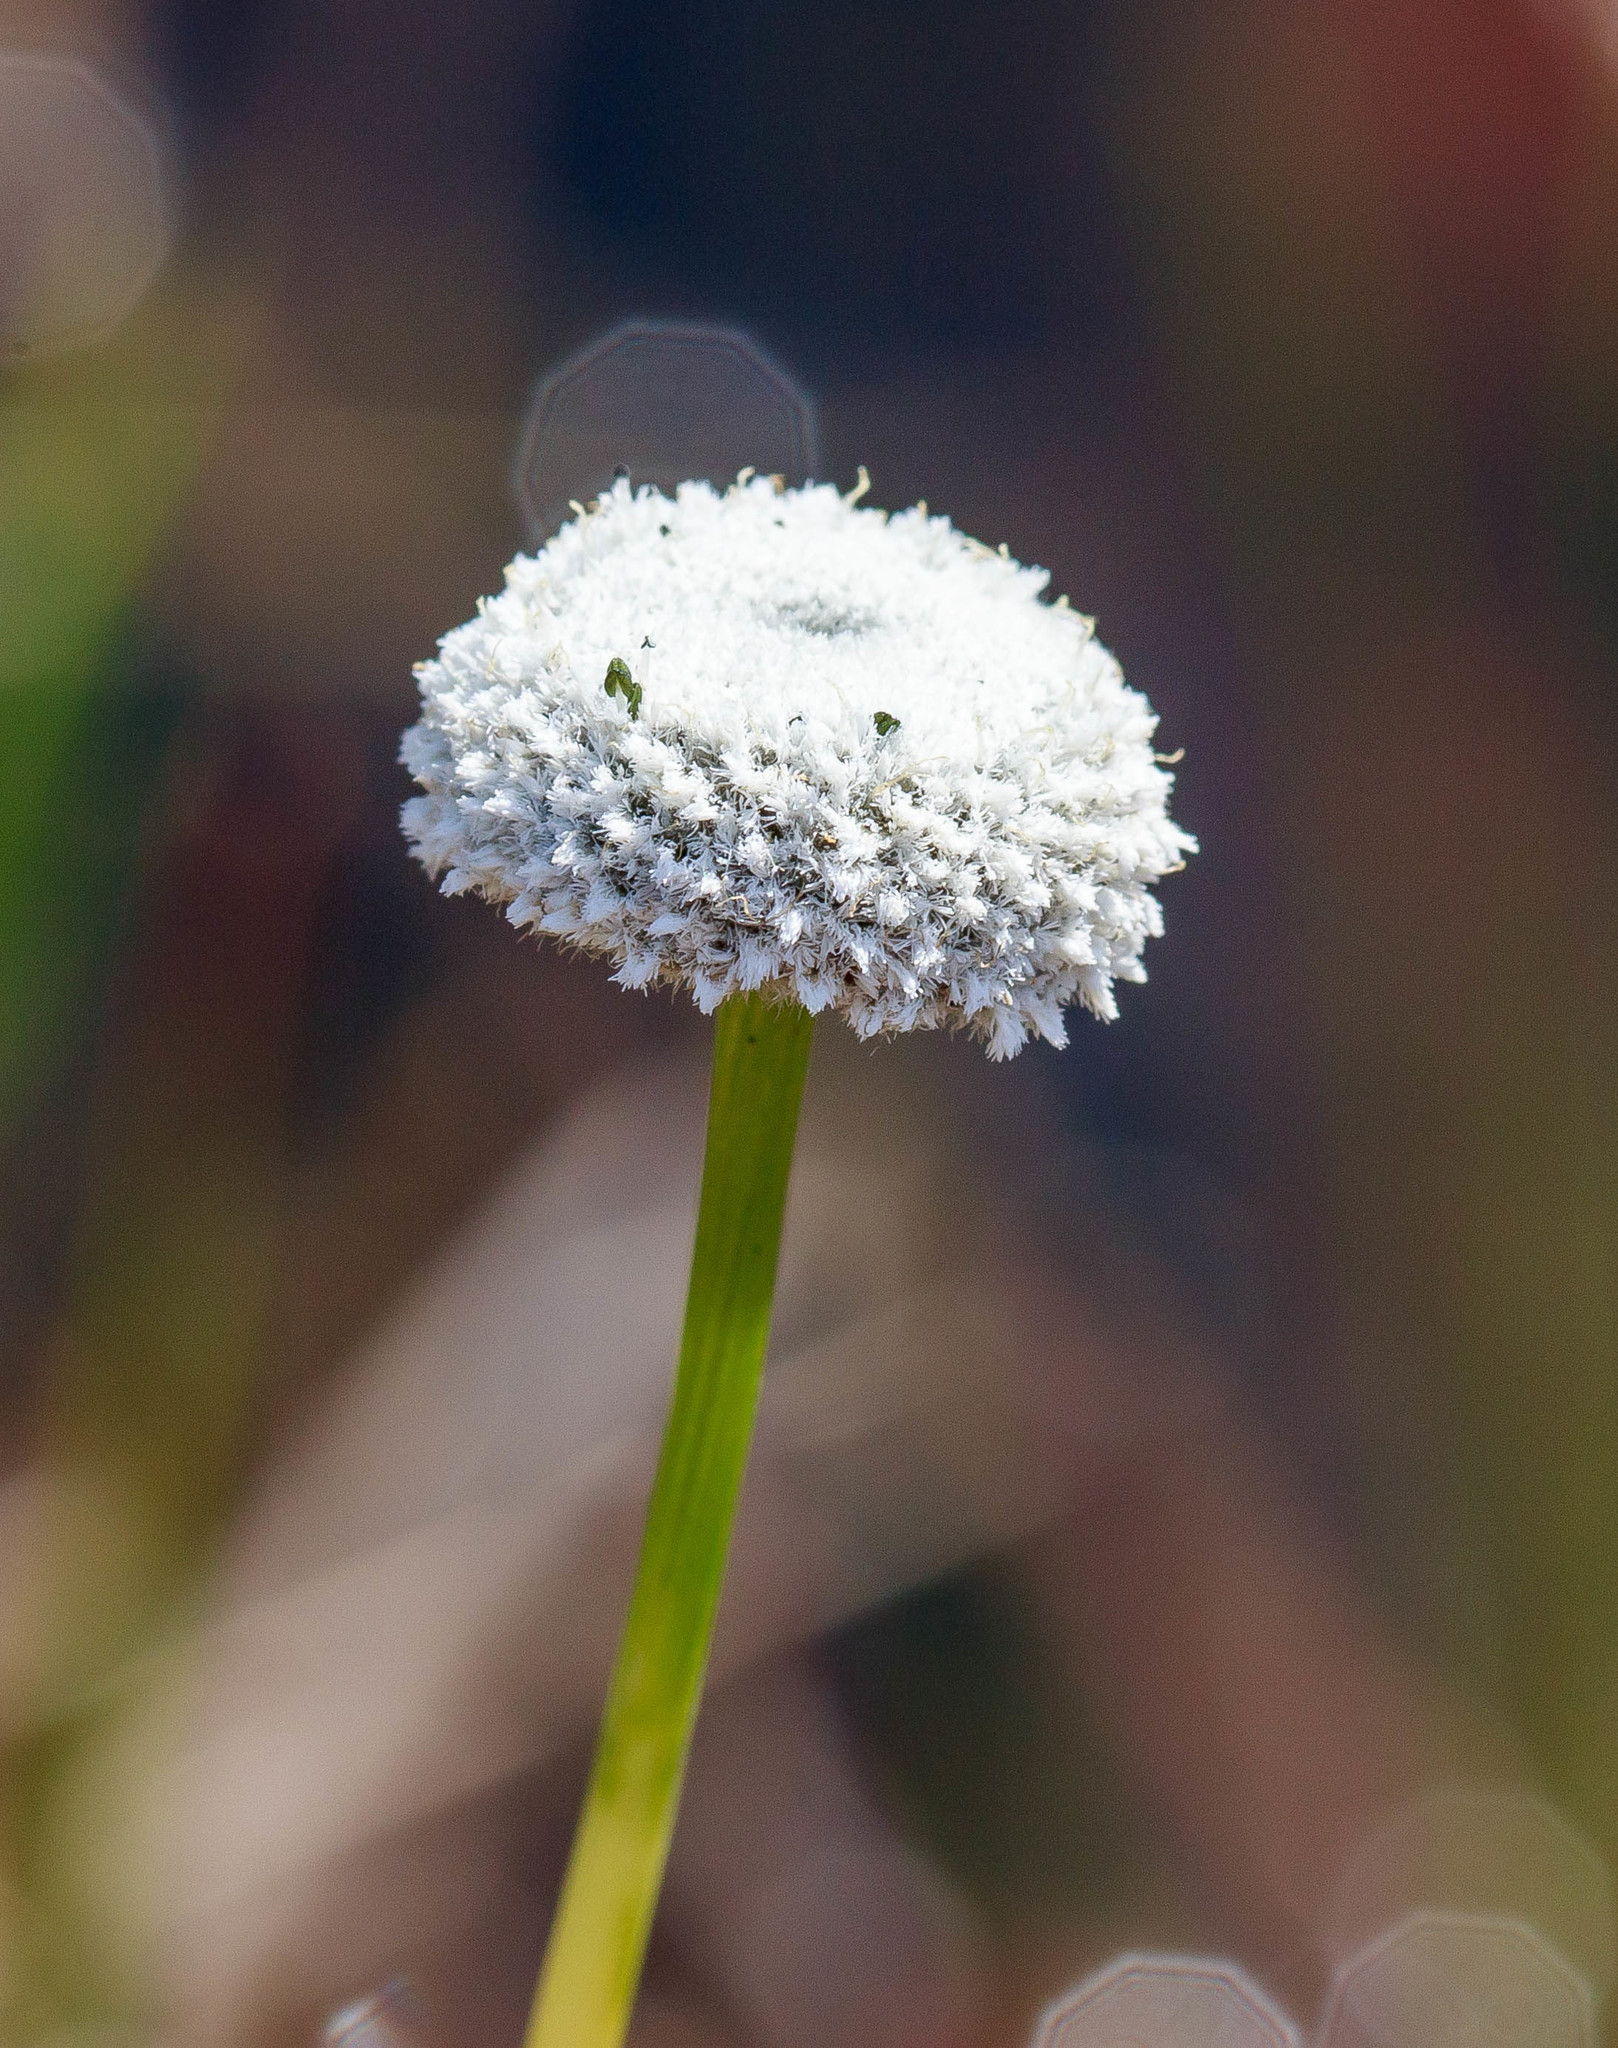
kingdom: Plantae
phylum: Tracheophyta
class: Liliopsida
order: Poales
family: Eriocaulaceae
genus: Eriocaulon
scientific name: Eriocaulon compressum
